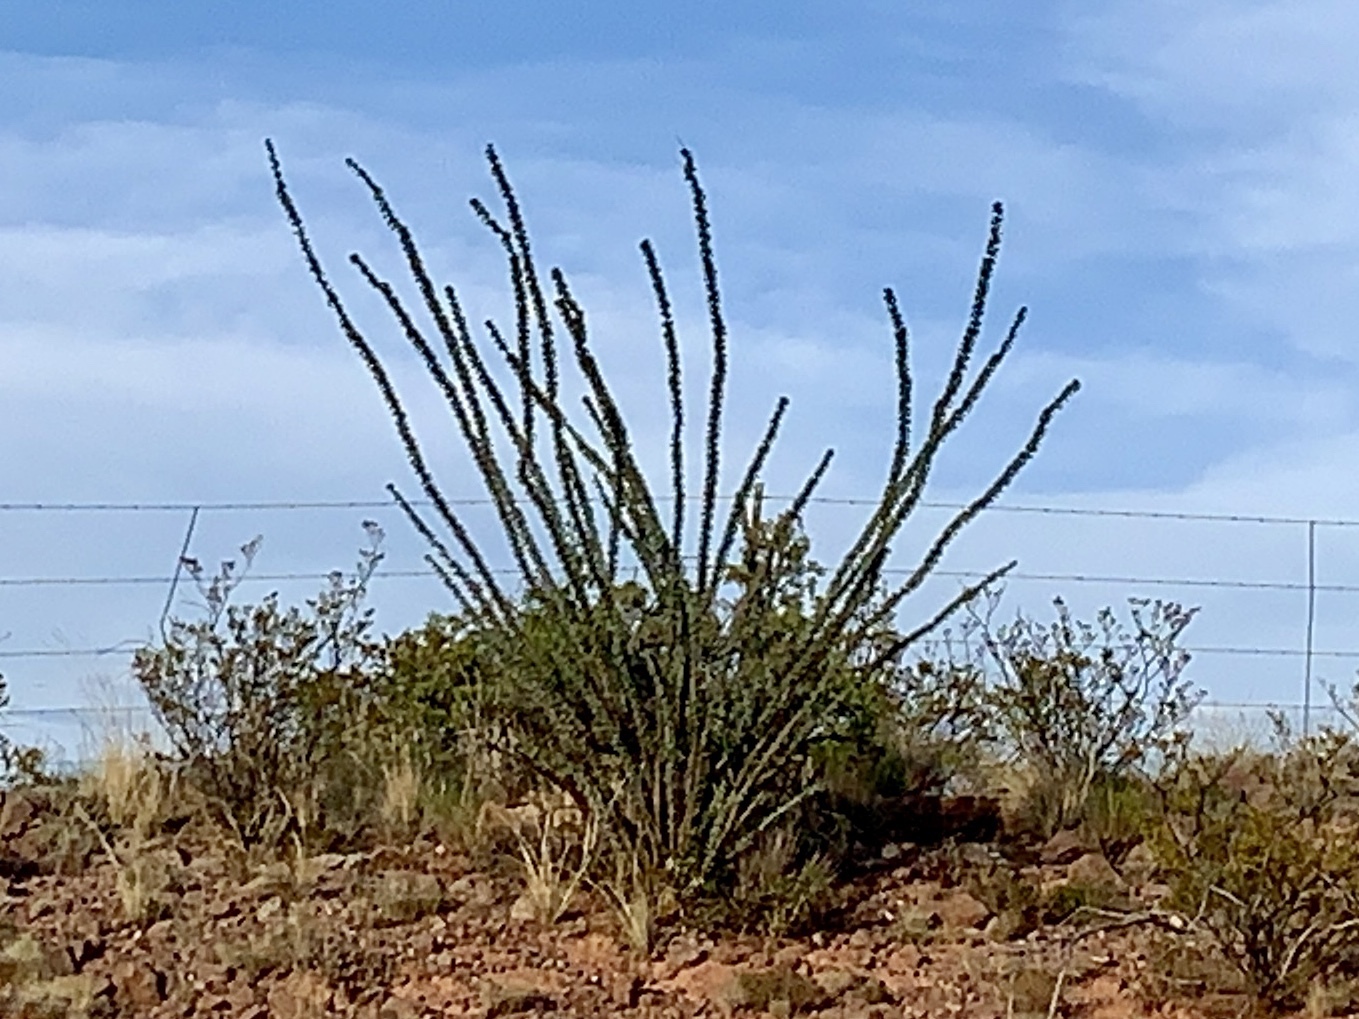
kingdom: Plantae
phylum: Tracheophyta
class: Magnoliopsida
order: Ericales
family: Fouquieriaceae
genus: Fouquieria
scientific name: Fouquieria splendens
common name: Vine-cactus
